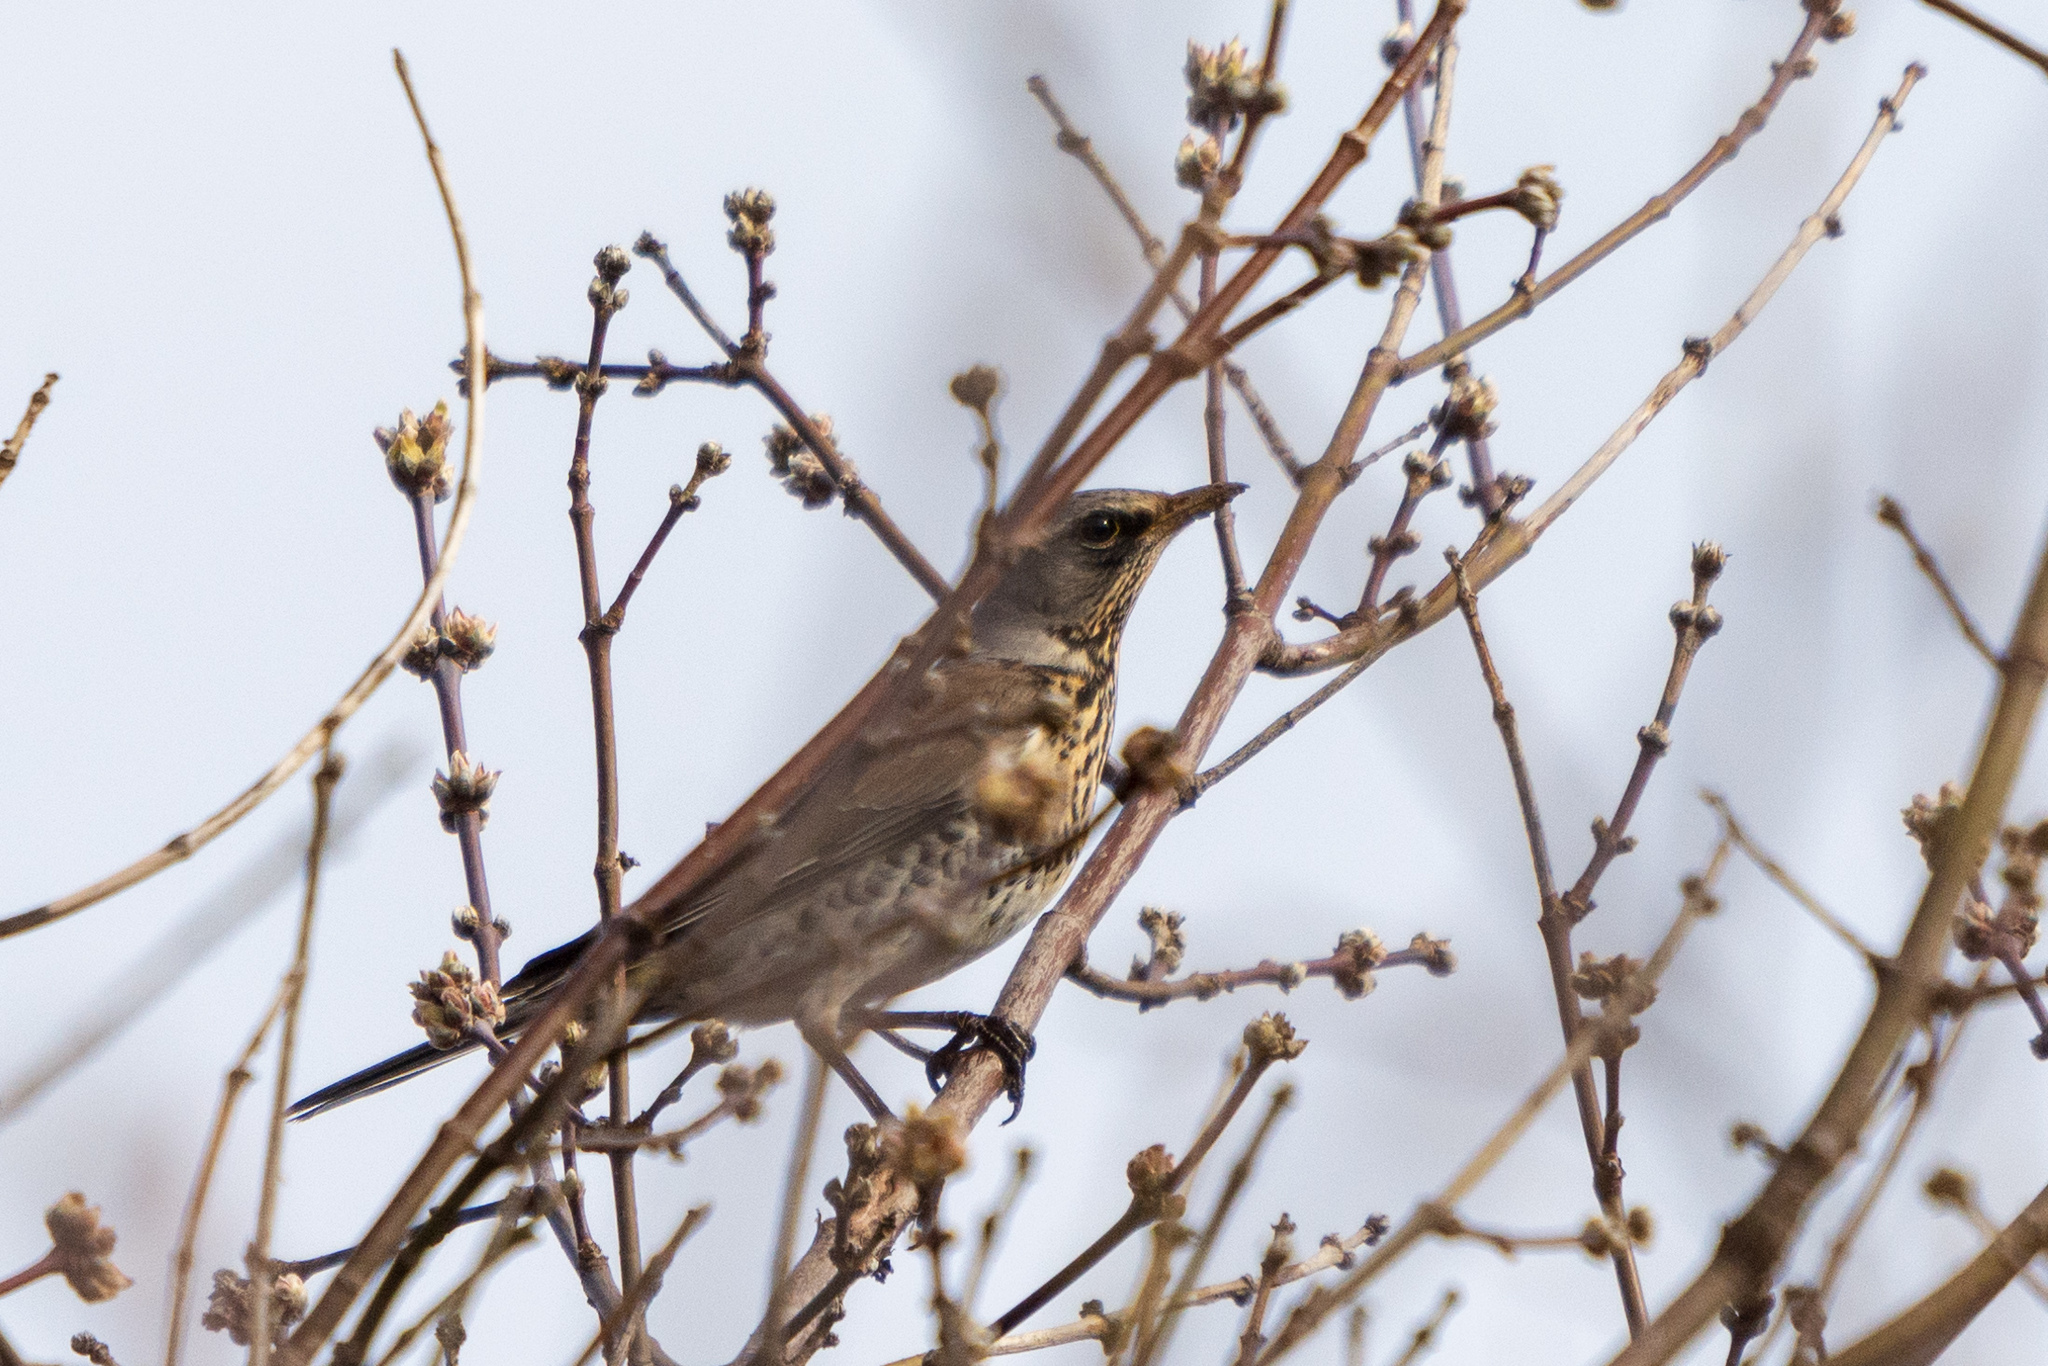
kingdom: Animalia
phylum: Chordata
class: Aves
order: Passeriformes
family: Turdidae
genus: Turdus
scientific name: Turdus pilaris
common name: Fieldfare
